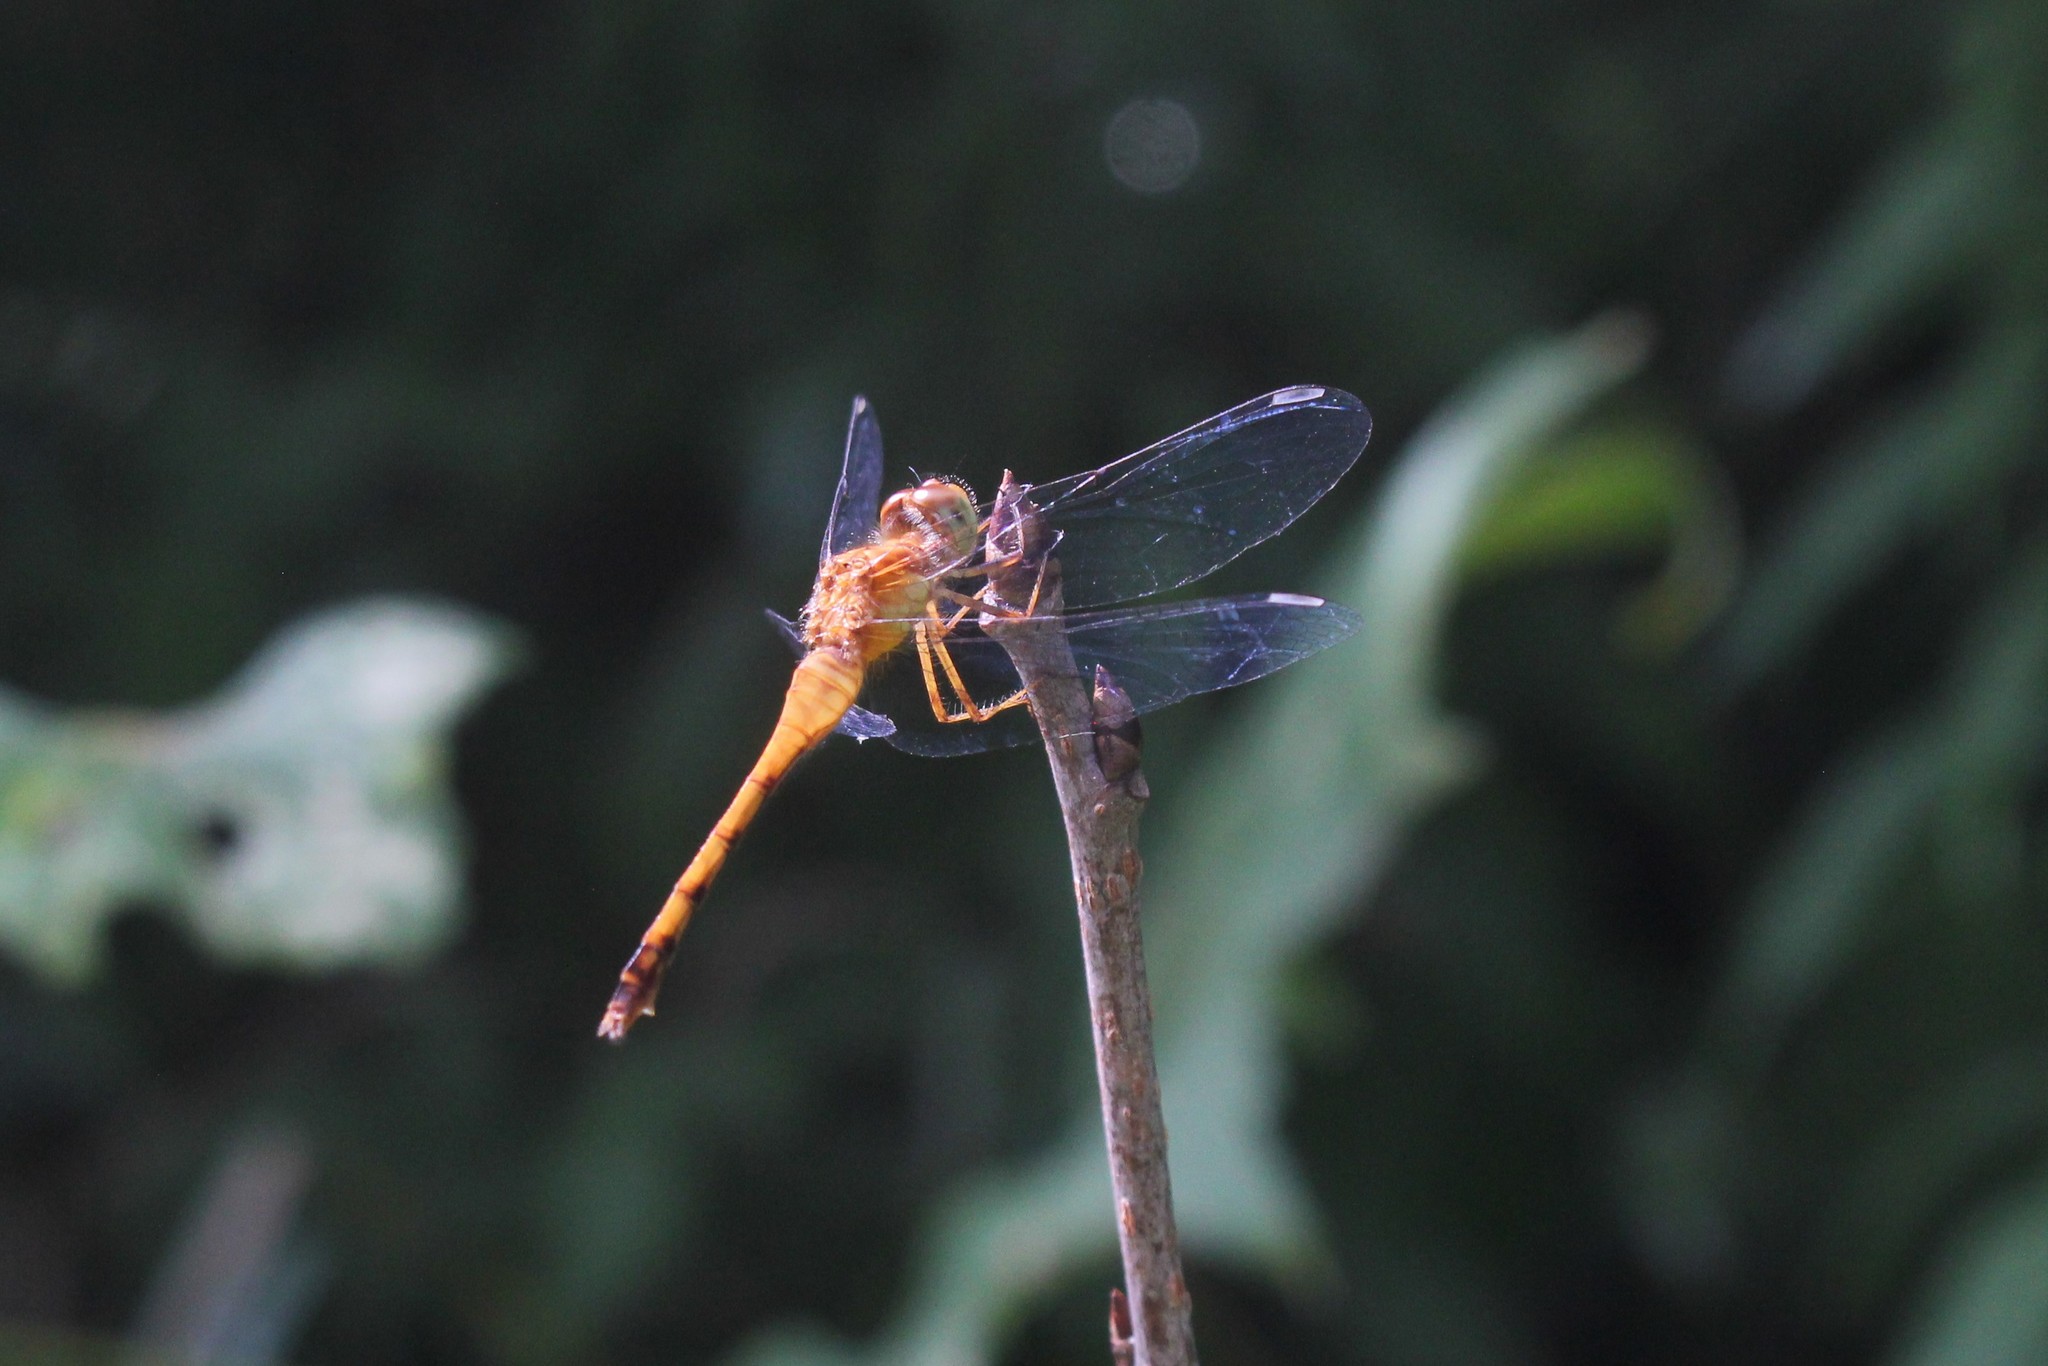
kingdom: Animalia
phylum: Arthropoda
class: Insecta
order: Odonata
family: Libellulidae
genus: Sympetrum
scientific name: Sympetrum vicinum
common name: Autumn meadowhawk
